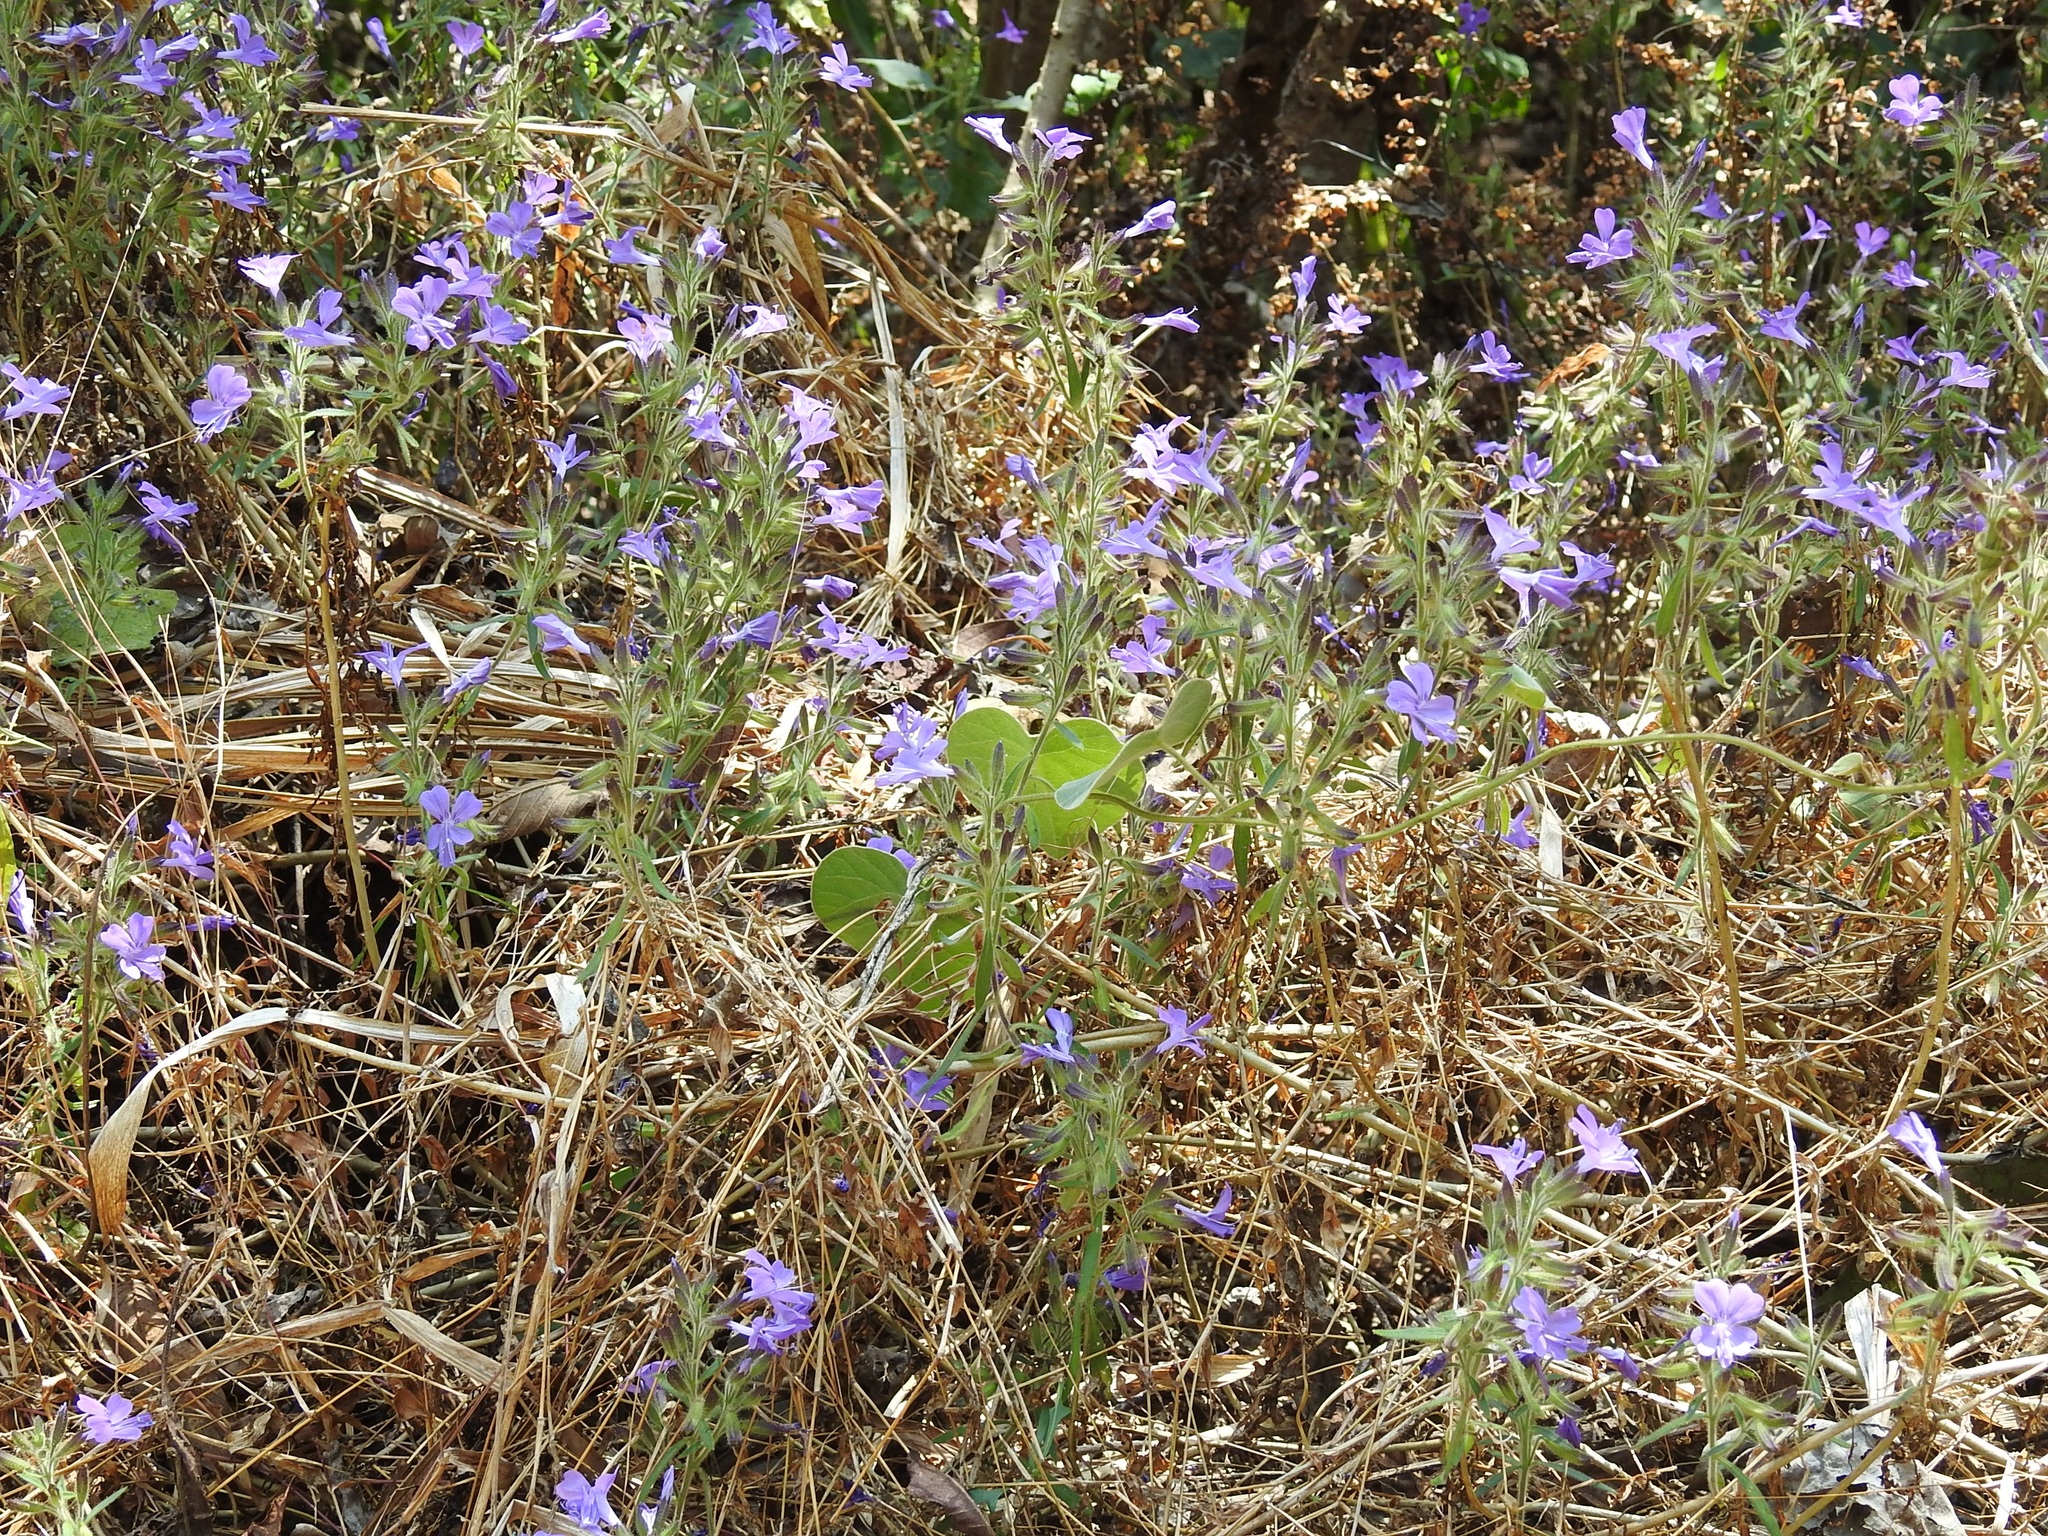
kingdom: Plantae
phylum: Tracheophyta
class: Magnoliopsida
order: Ericales
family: Polemoniaceae
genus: Bonplandia
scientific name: Bonplandia geminiflora
